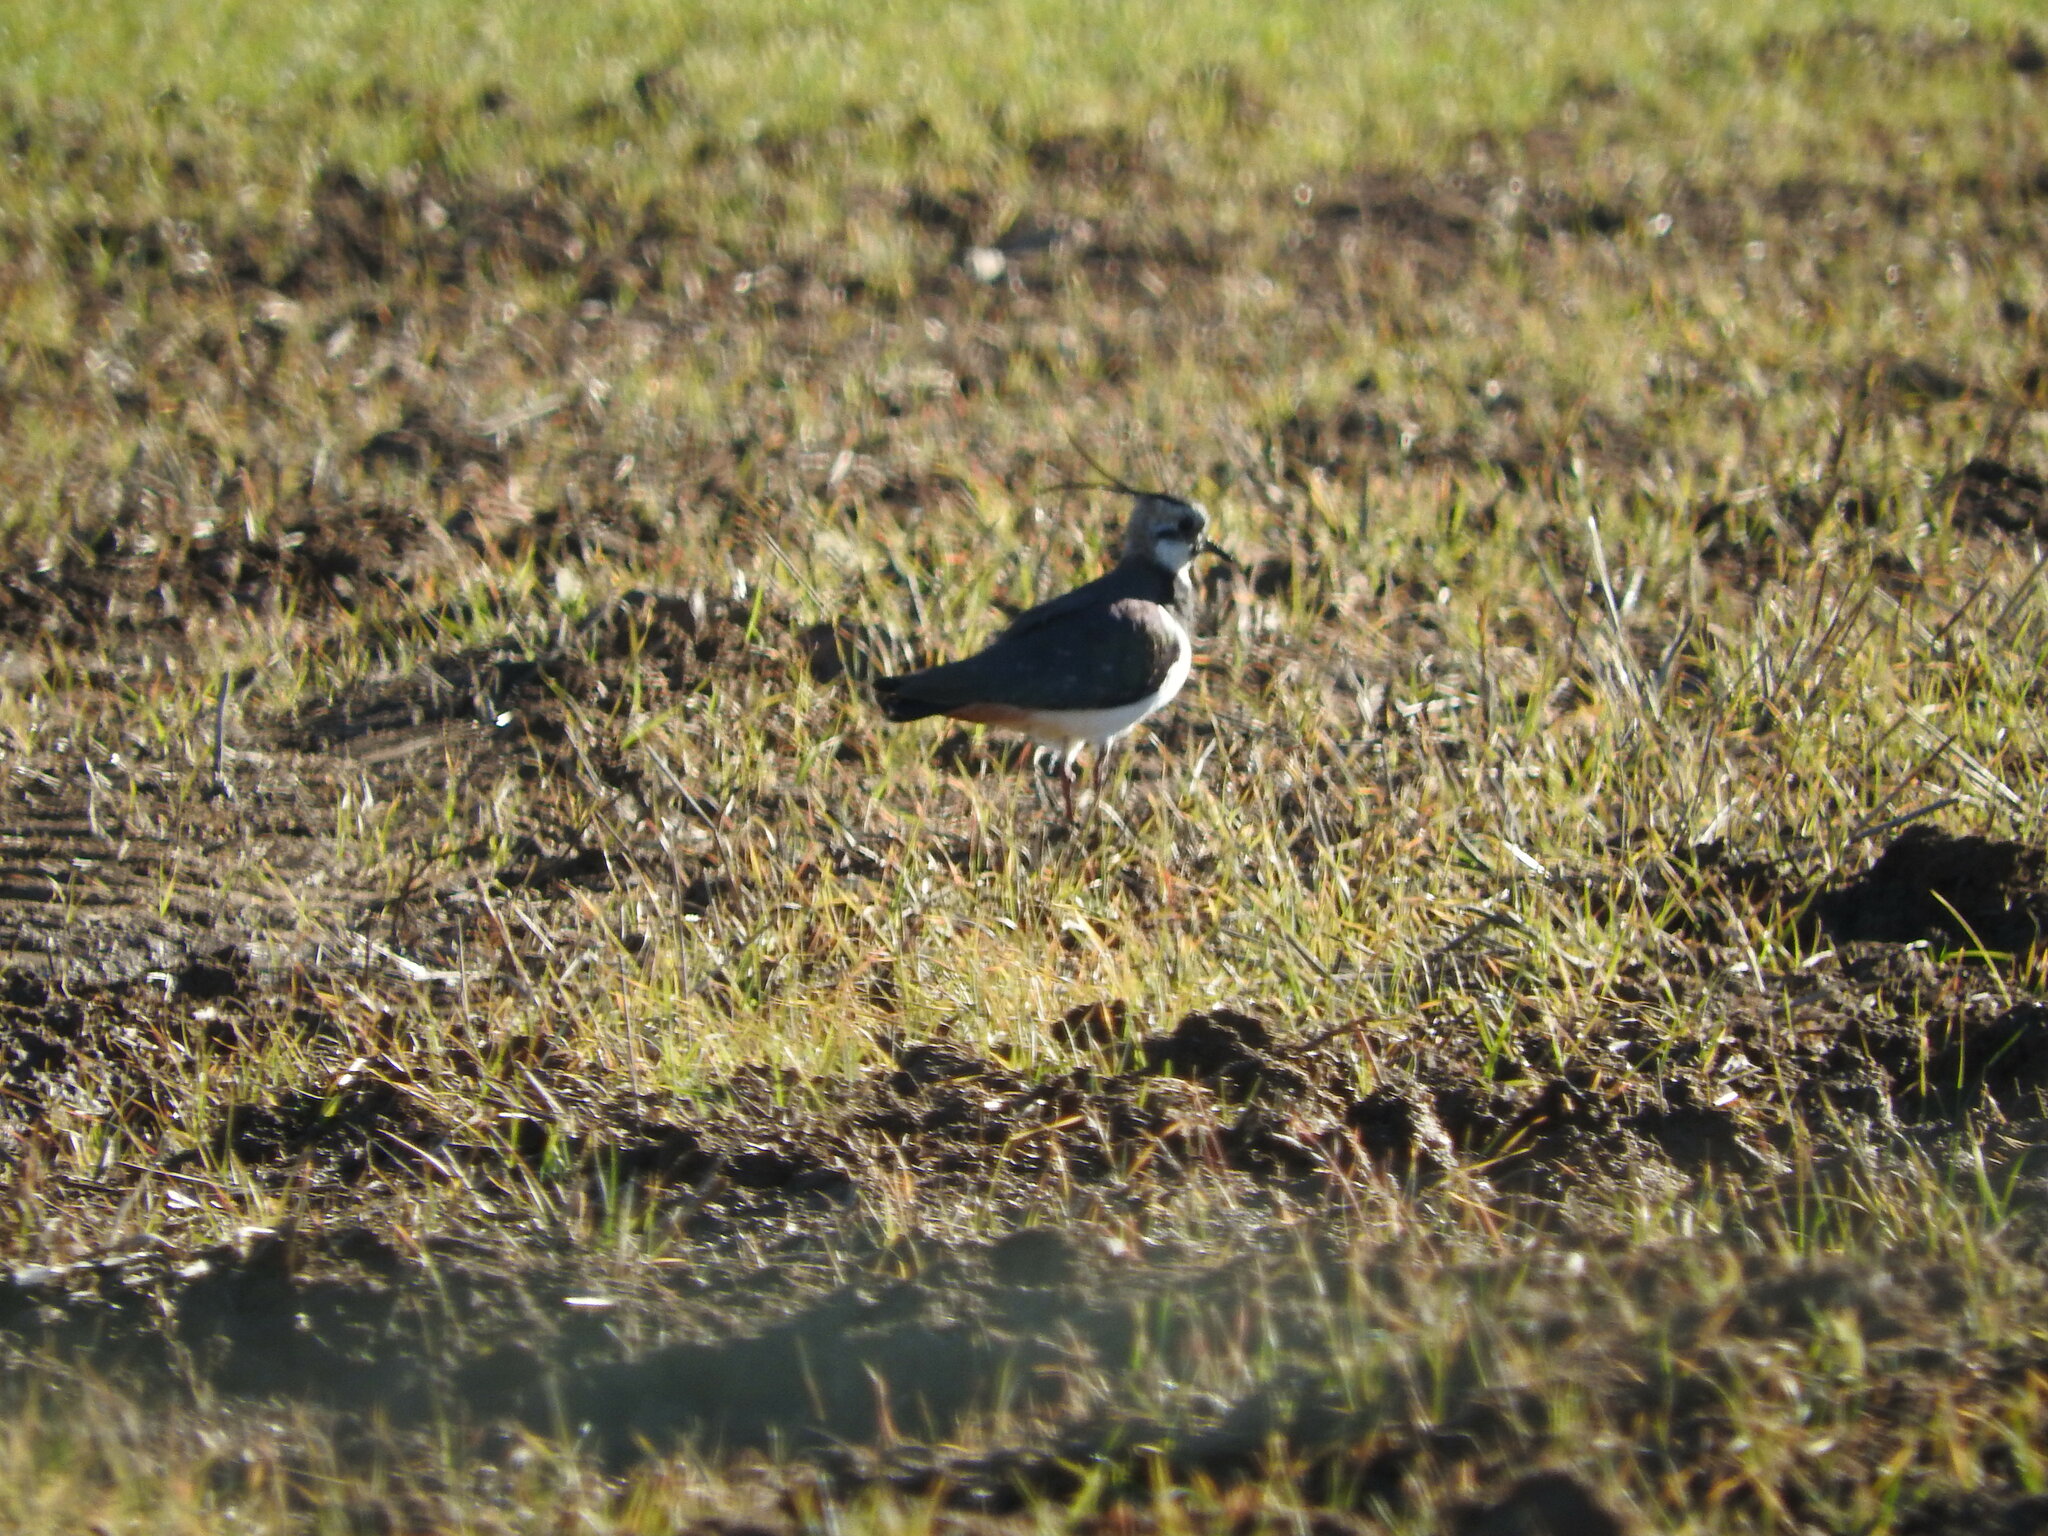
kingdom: Animalia
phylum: Chordata
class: Aves
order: Charadriiformes
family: Charadriidae
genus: Vanellus
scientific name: Vanellus vanellus
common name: Northern lapwing
